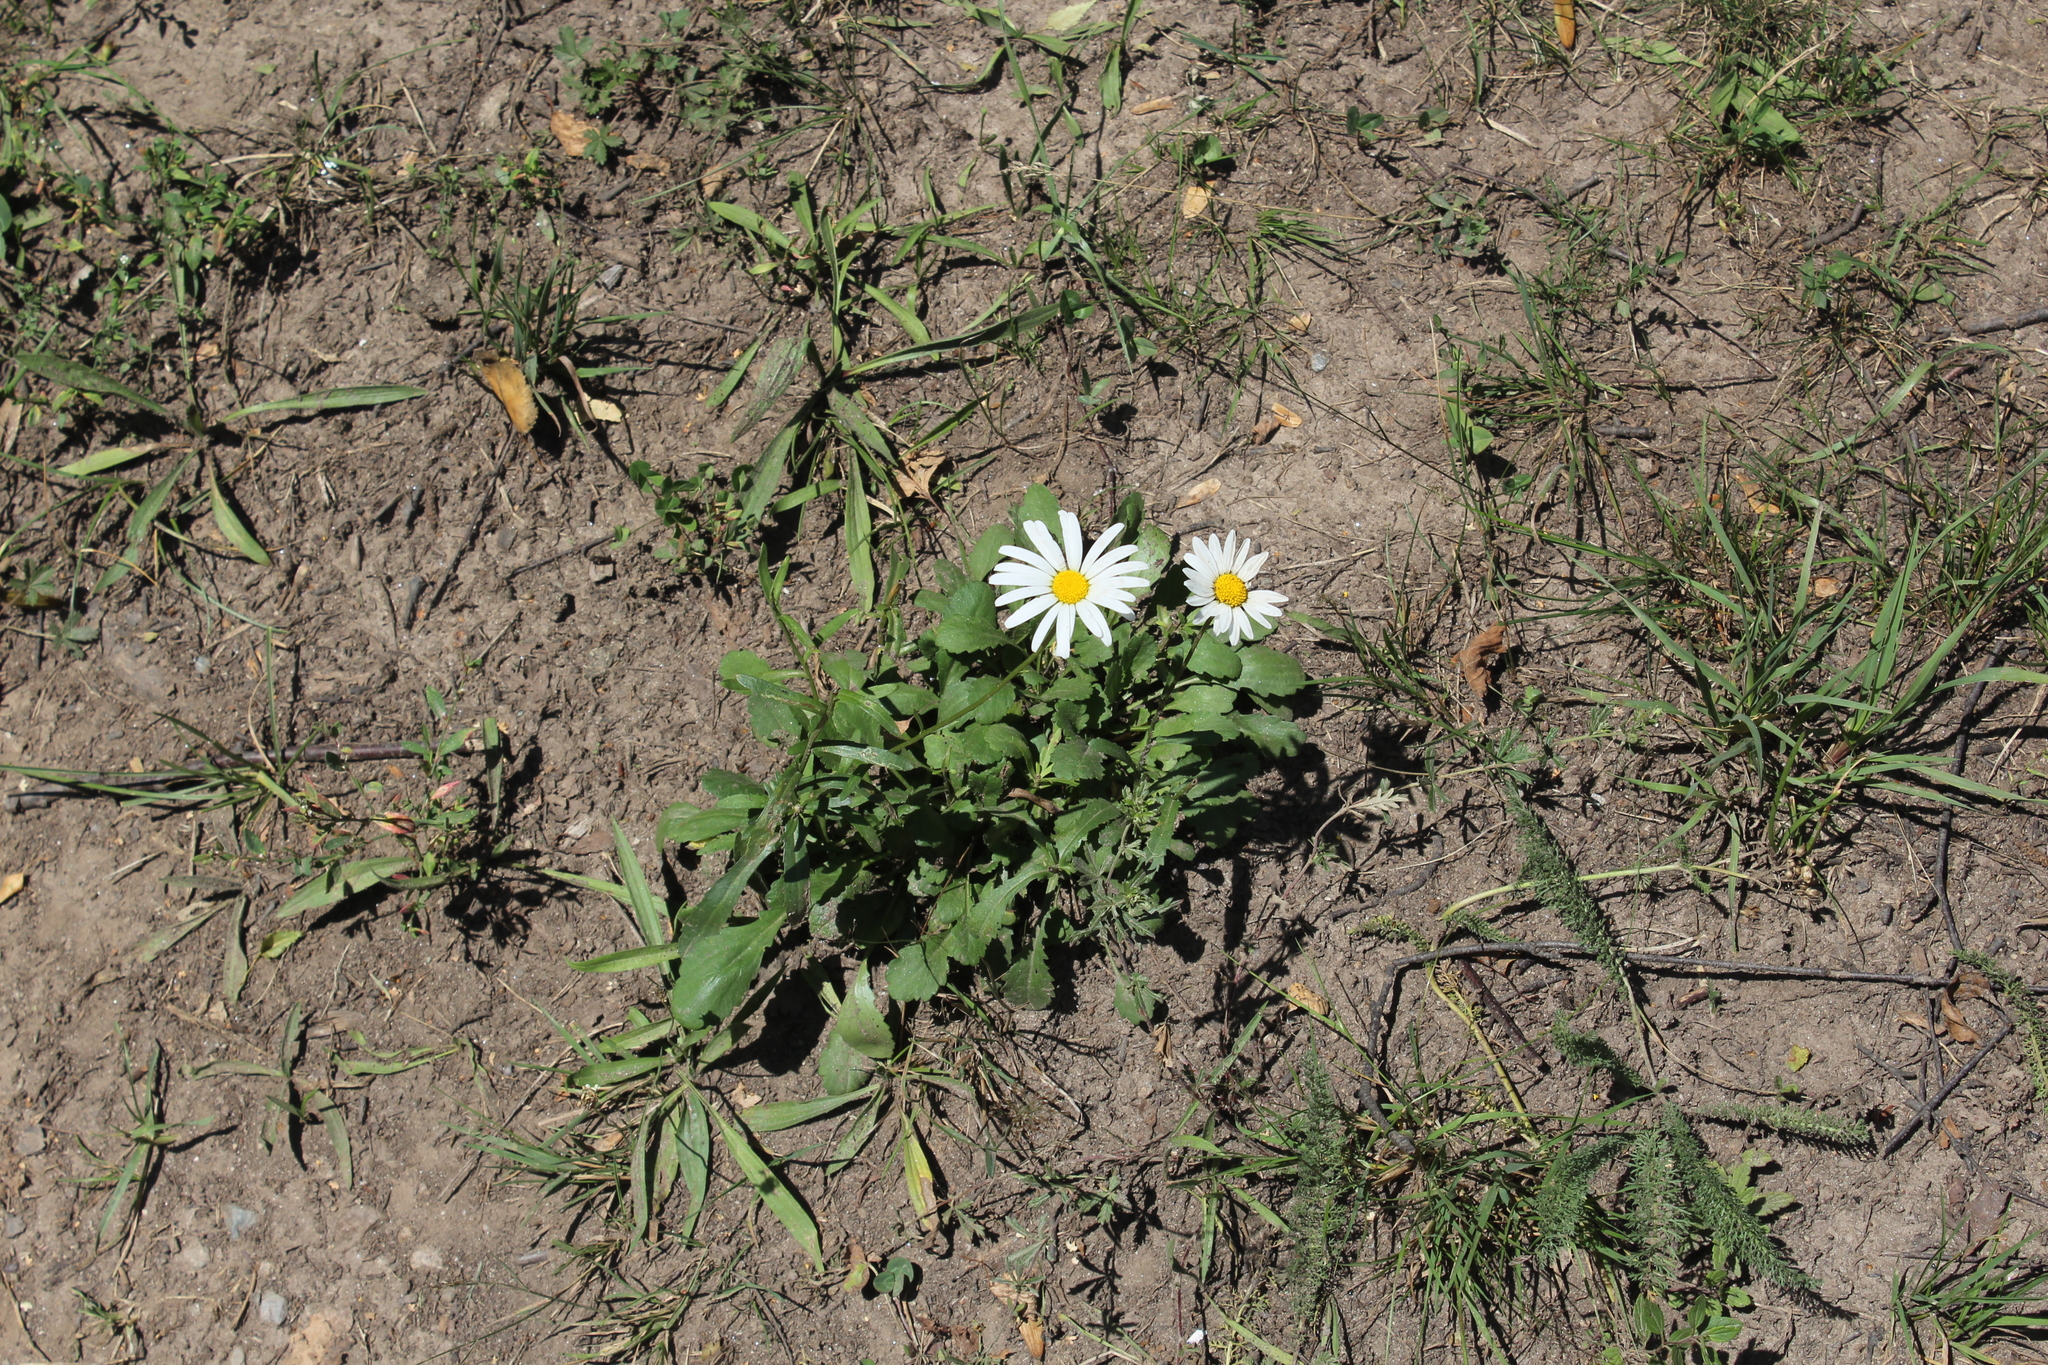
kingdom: Plantae
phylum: Tracheophyta
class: Magnoliopsida
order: Asterales
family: Asteraceae
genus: Leucanthemum
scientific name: Leucanthemum vulgare
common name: Oxeye daisy
